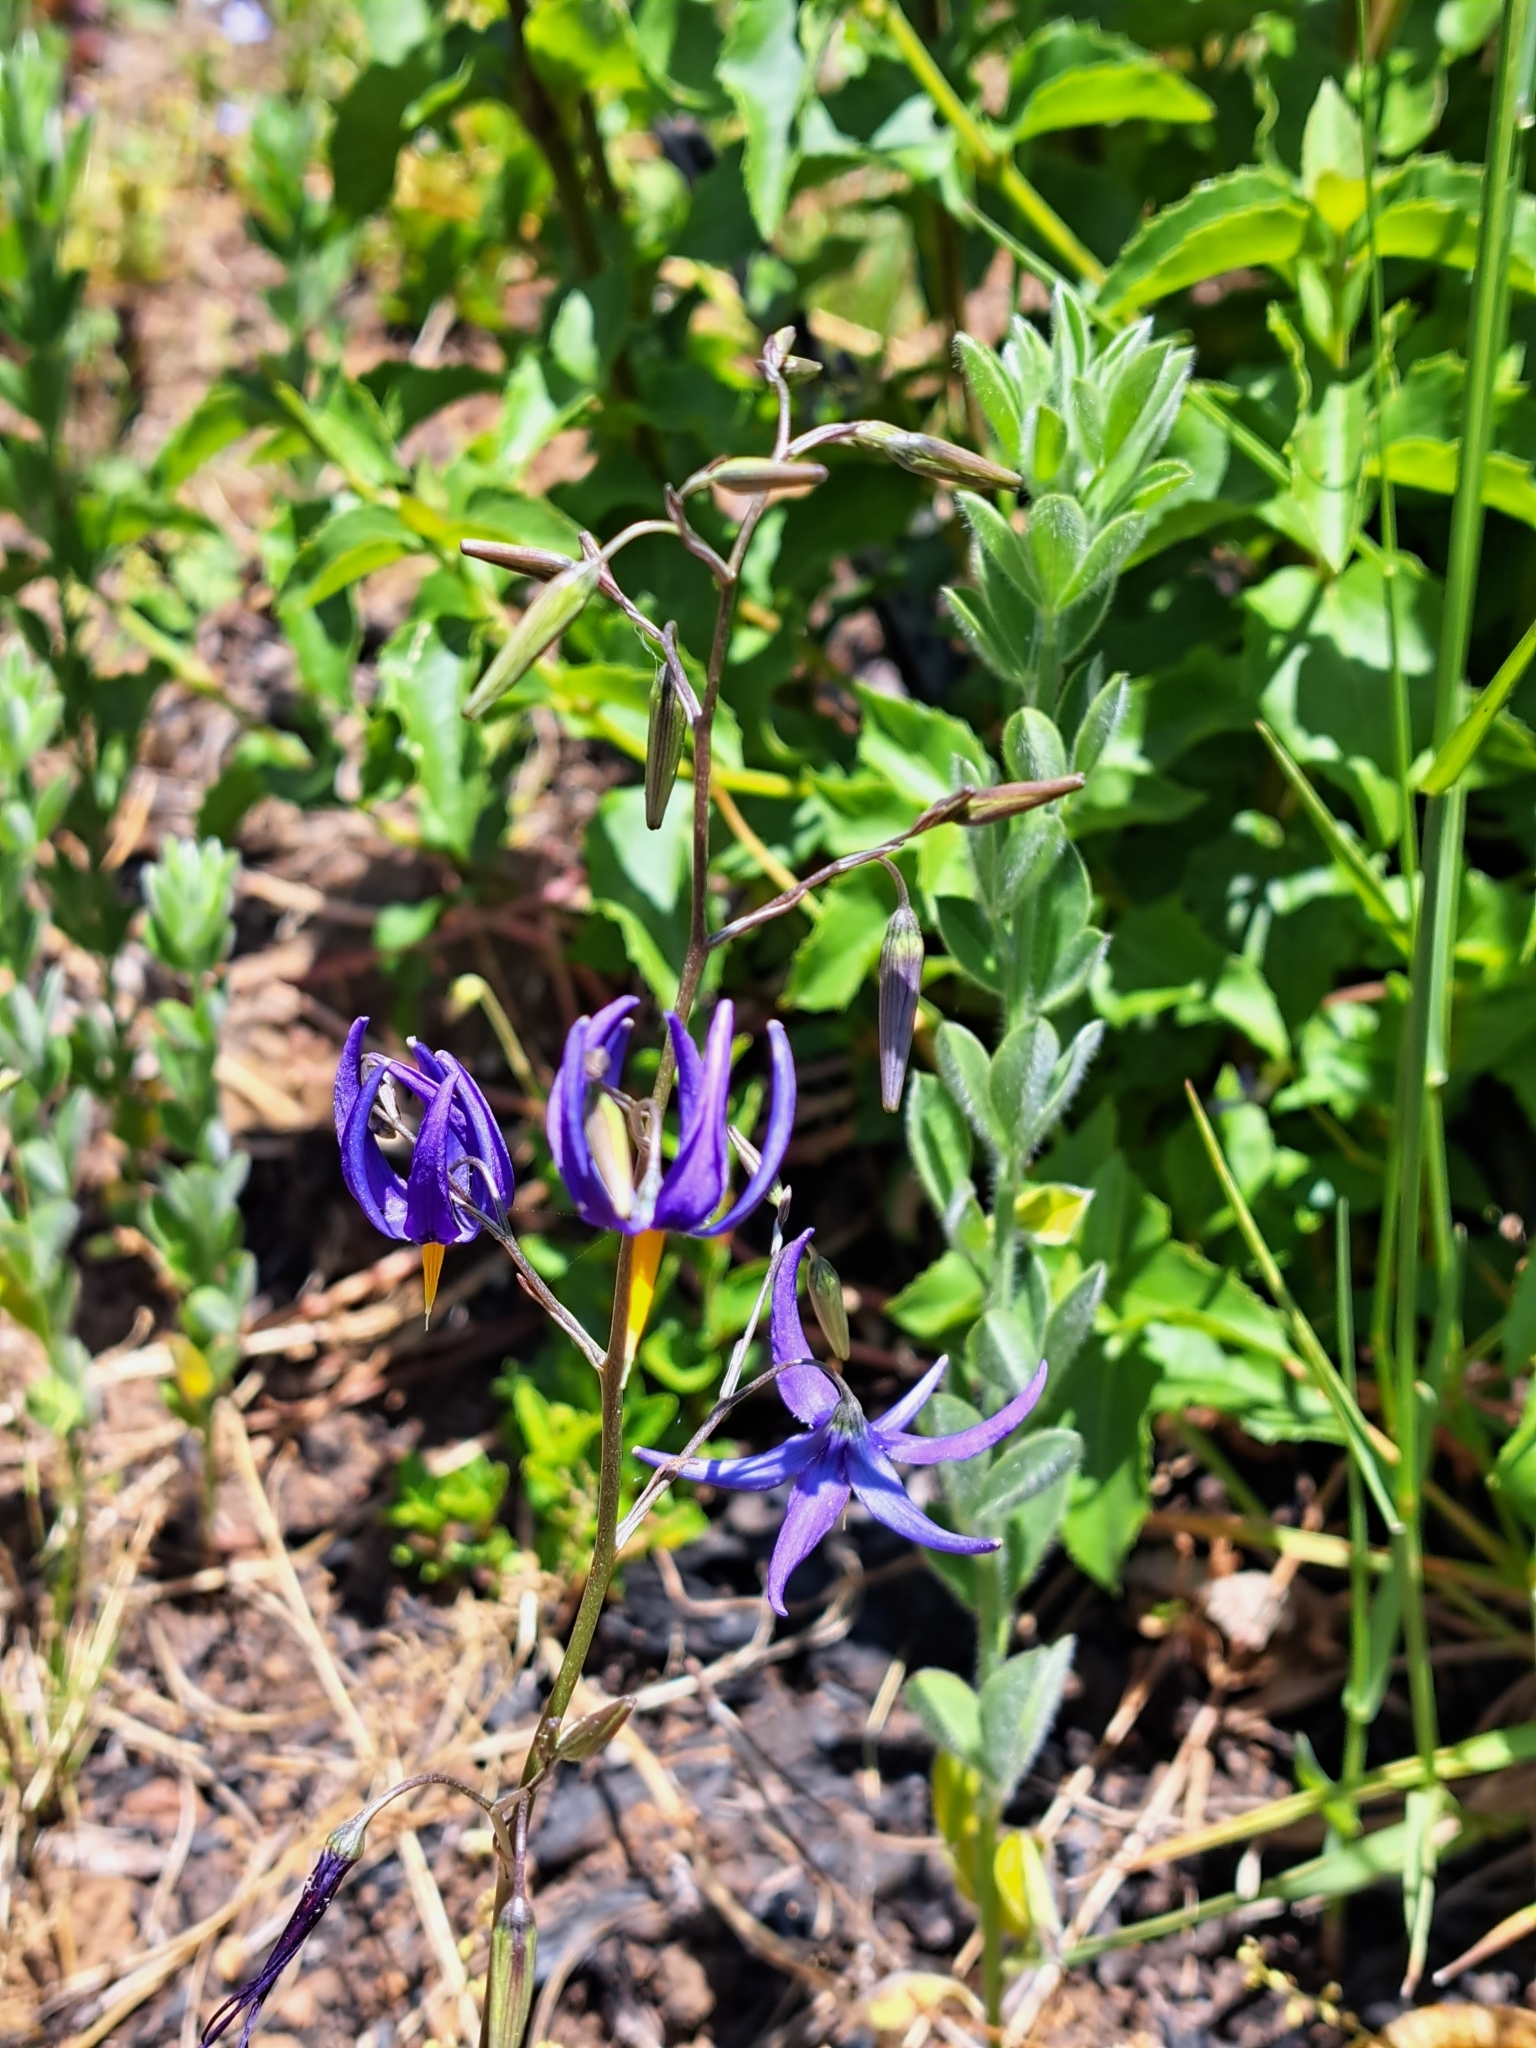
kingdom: Plantae
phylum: Tracheophyta
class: Liliopsida
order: Asparagales
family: Tecophilaeaceae
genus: Conanthera
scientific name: Conanthera bifolia
